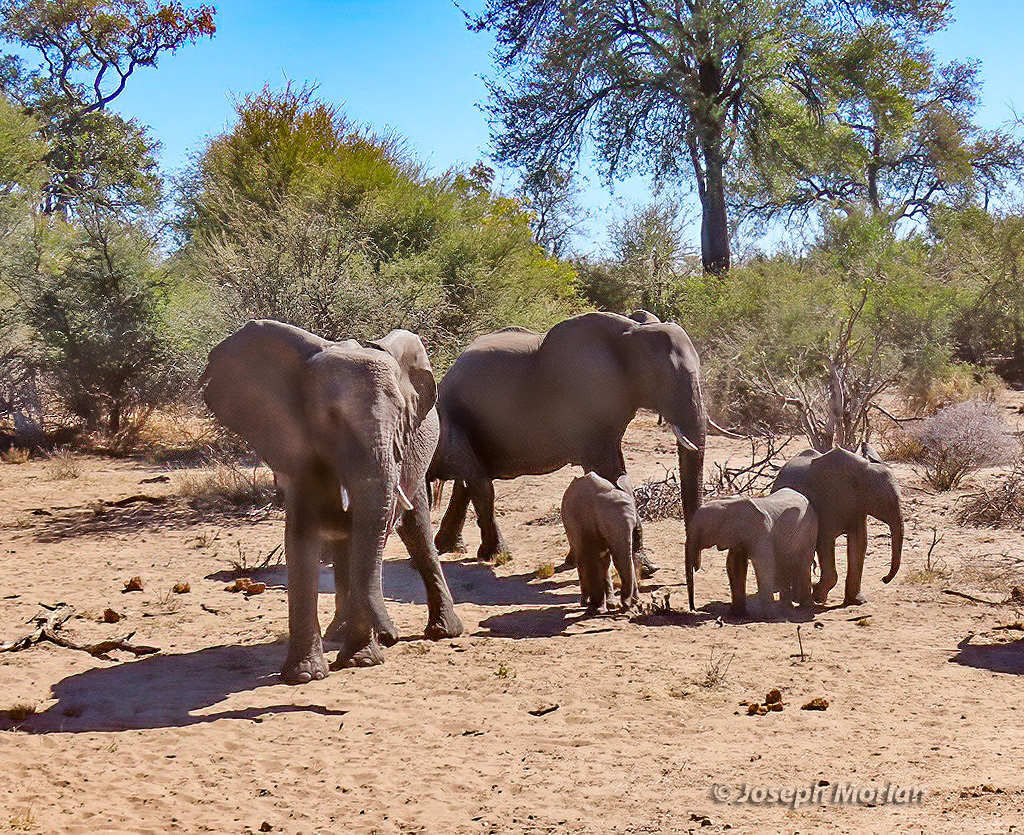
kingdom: Animalia
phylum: Chordata
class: Mammalia
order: Proboscidea
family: Elephantidae
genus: Loxodonta
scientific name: Loxodonta africana
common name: African elephant
